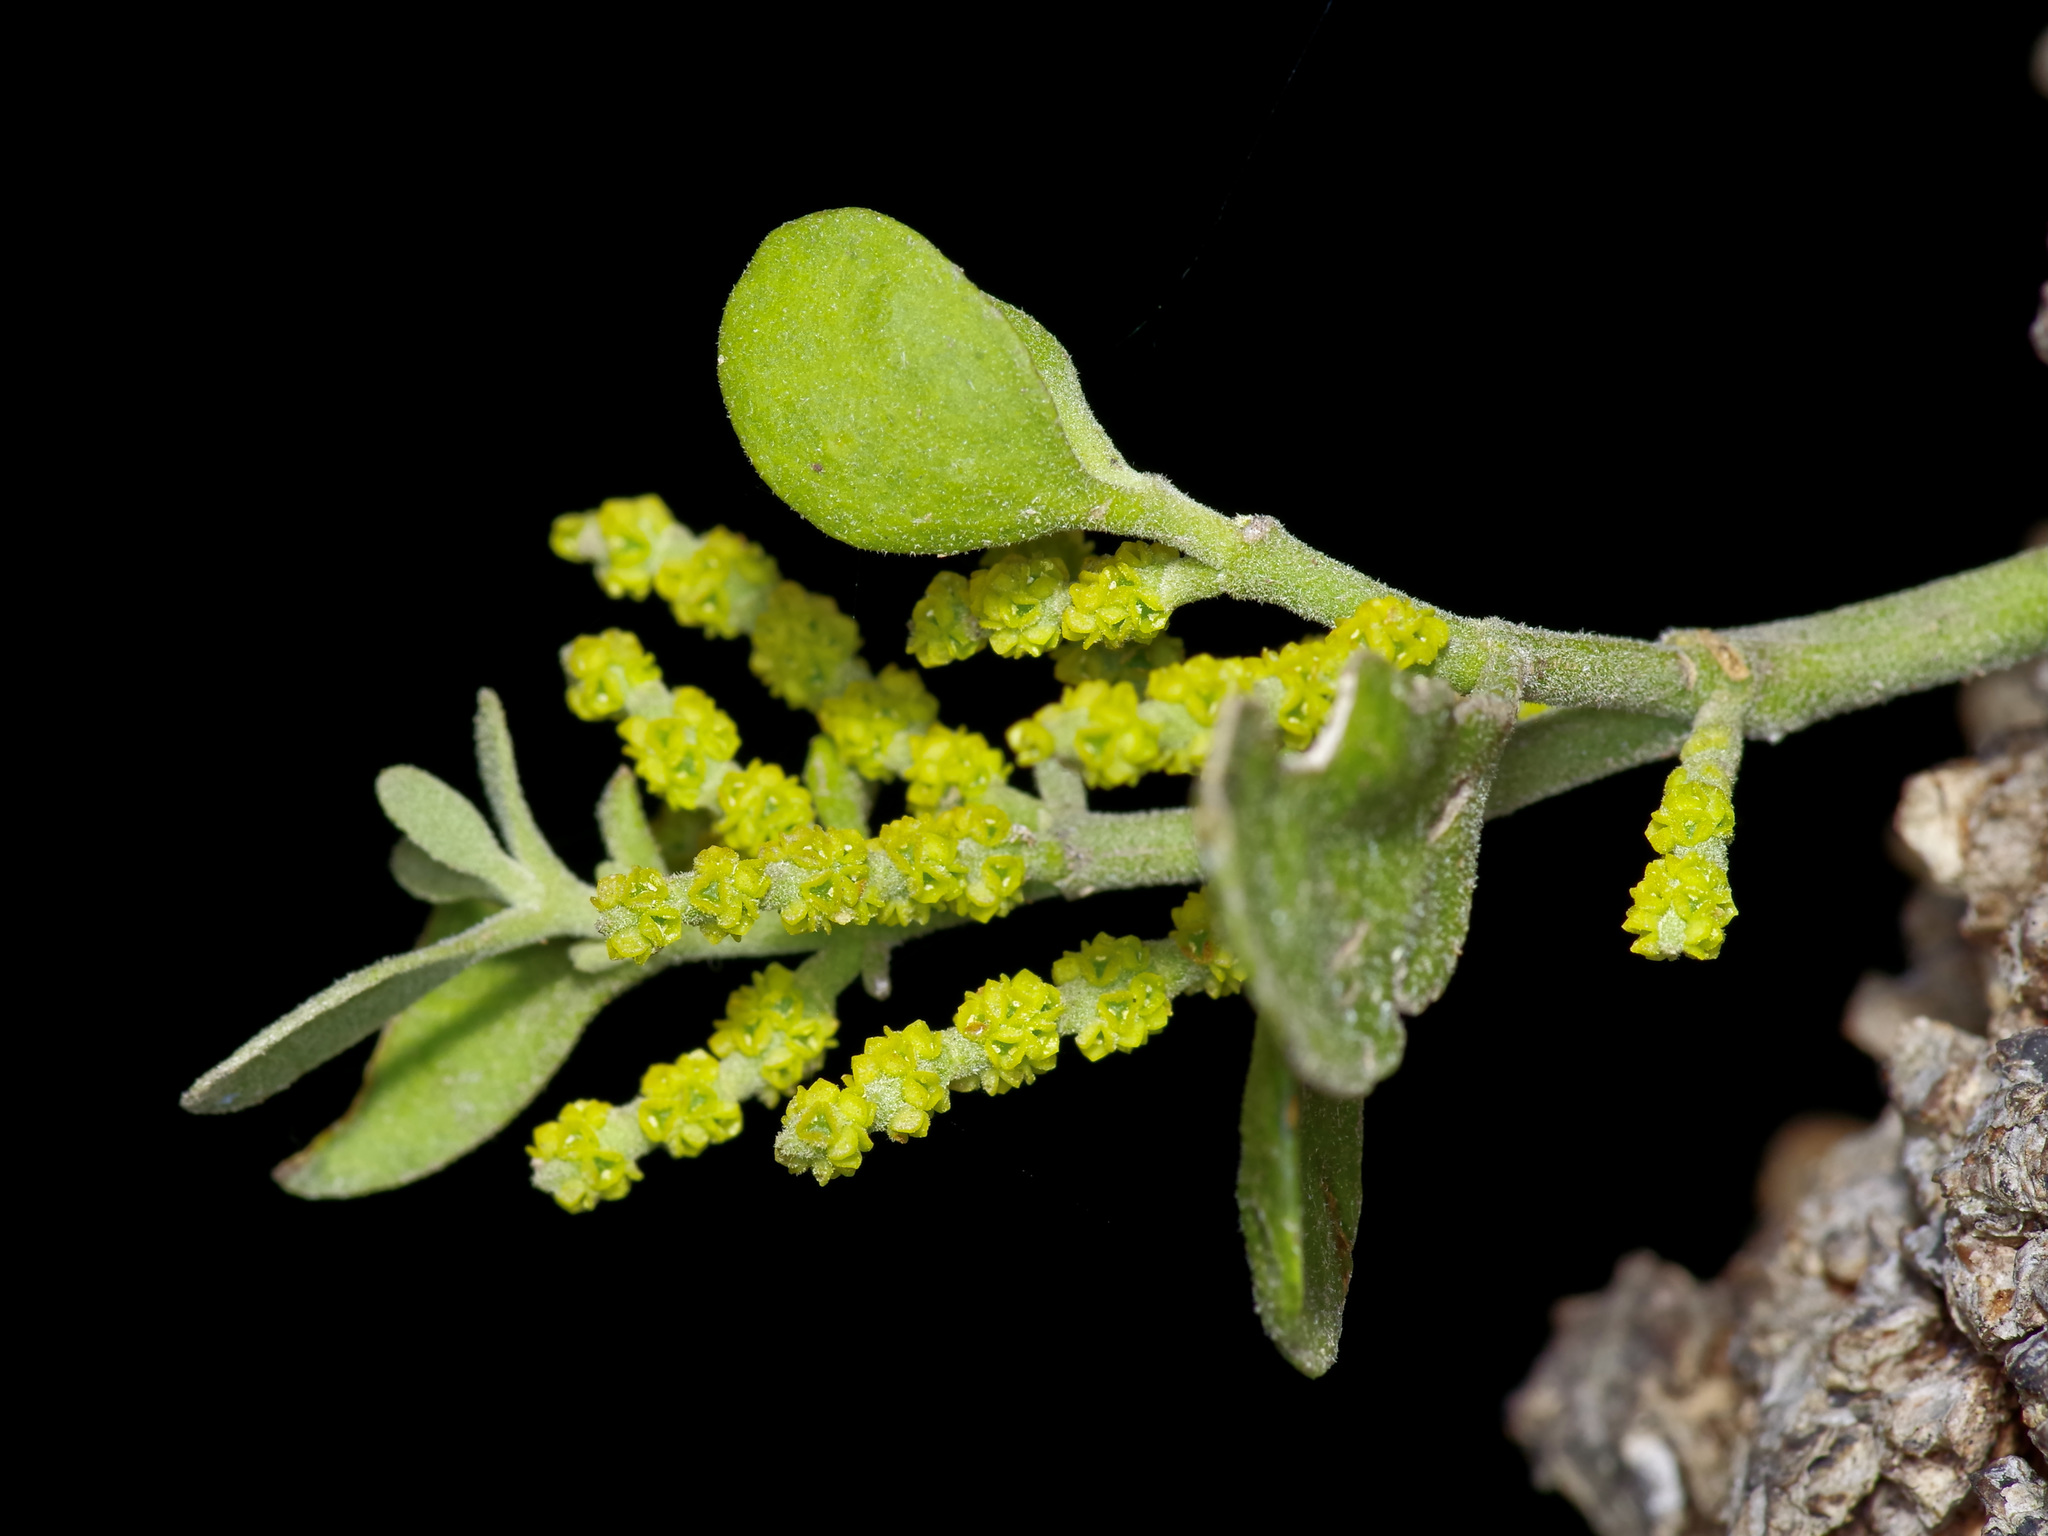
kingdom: Plantae
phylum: Tracheophyta
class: Magnoliopsida
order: Santalales
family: Viscaceae
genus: Phoradendron
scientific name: Phoradendron leucarpum
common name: Pacific mistletoe
